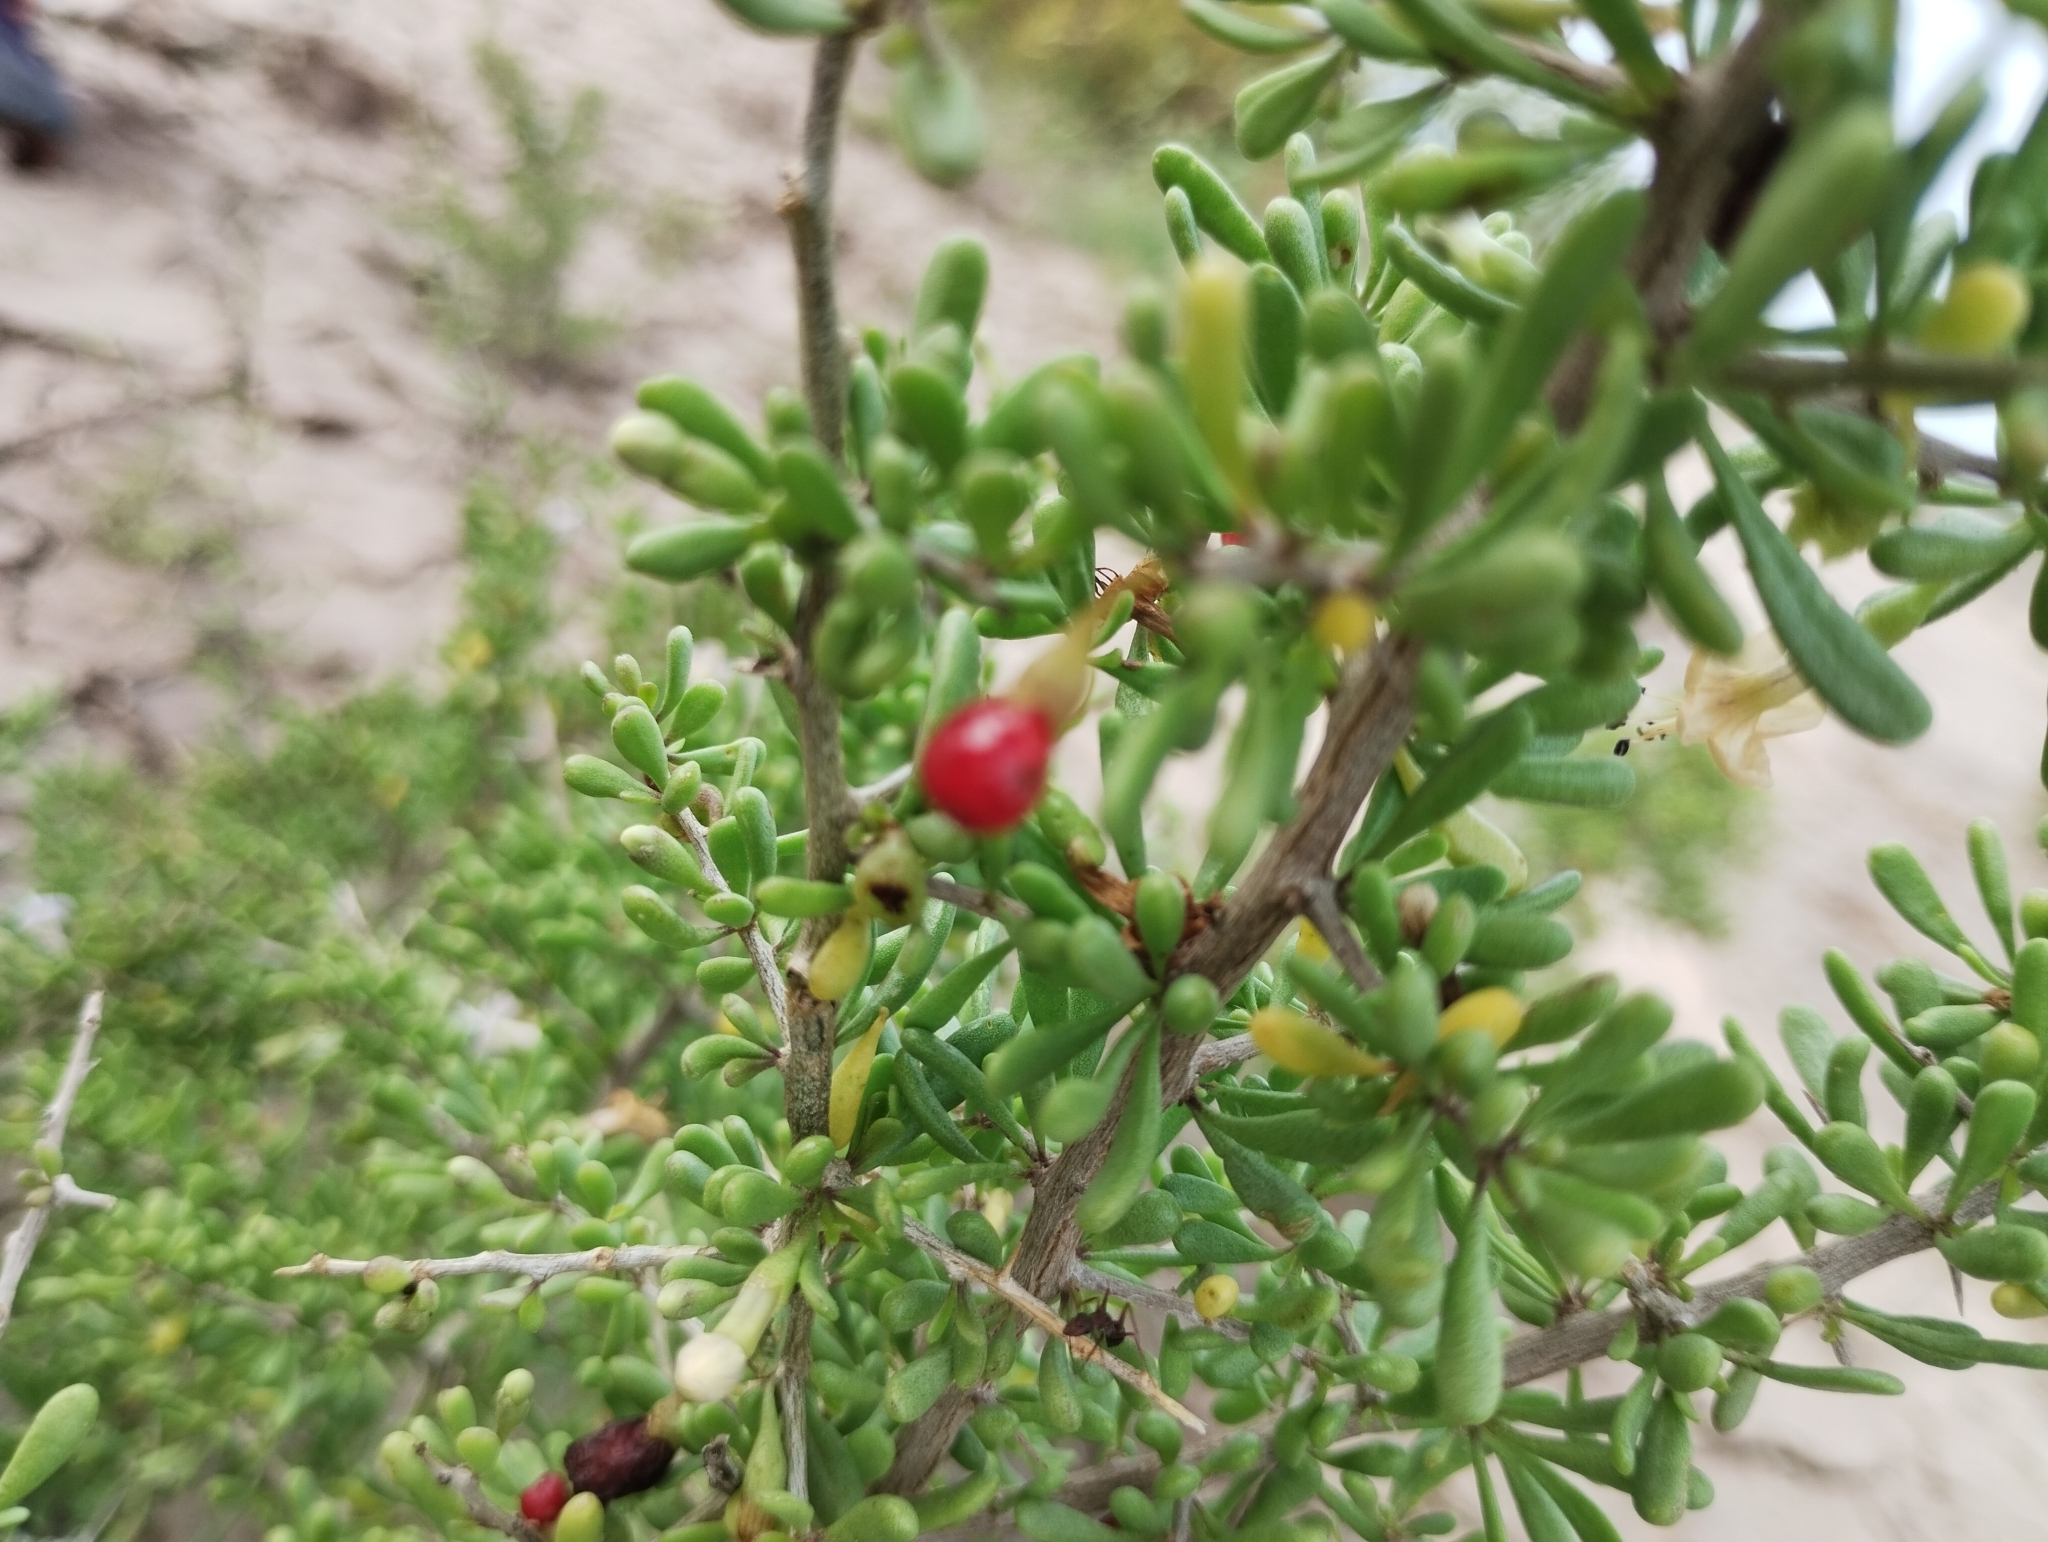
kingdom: Plantae
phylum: Tracheophyta
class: Magnoliopsida
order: Solanales
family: Solanaceae
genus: Lycium
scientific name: Lycium infaustum
